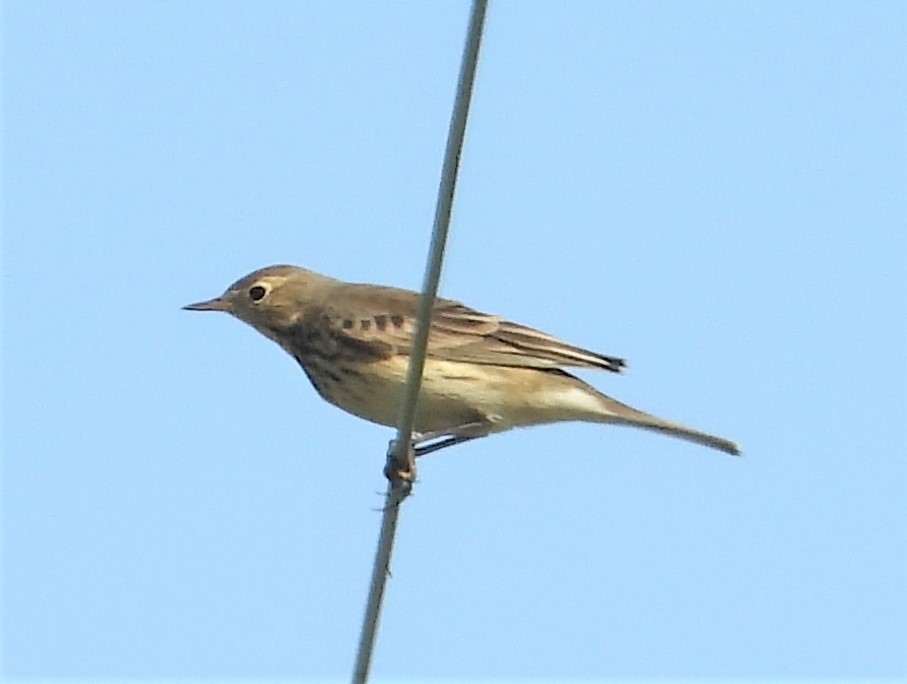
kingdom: Animalia
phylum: Chordata
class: Aves
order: Passeriformes
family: Motacillidae
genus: Anthus
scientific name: Anthus rubescens
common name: Buff-bellied pipit
